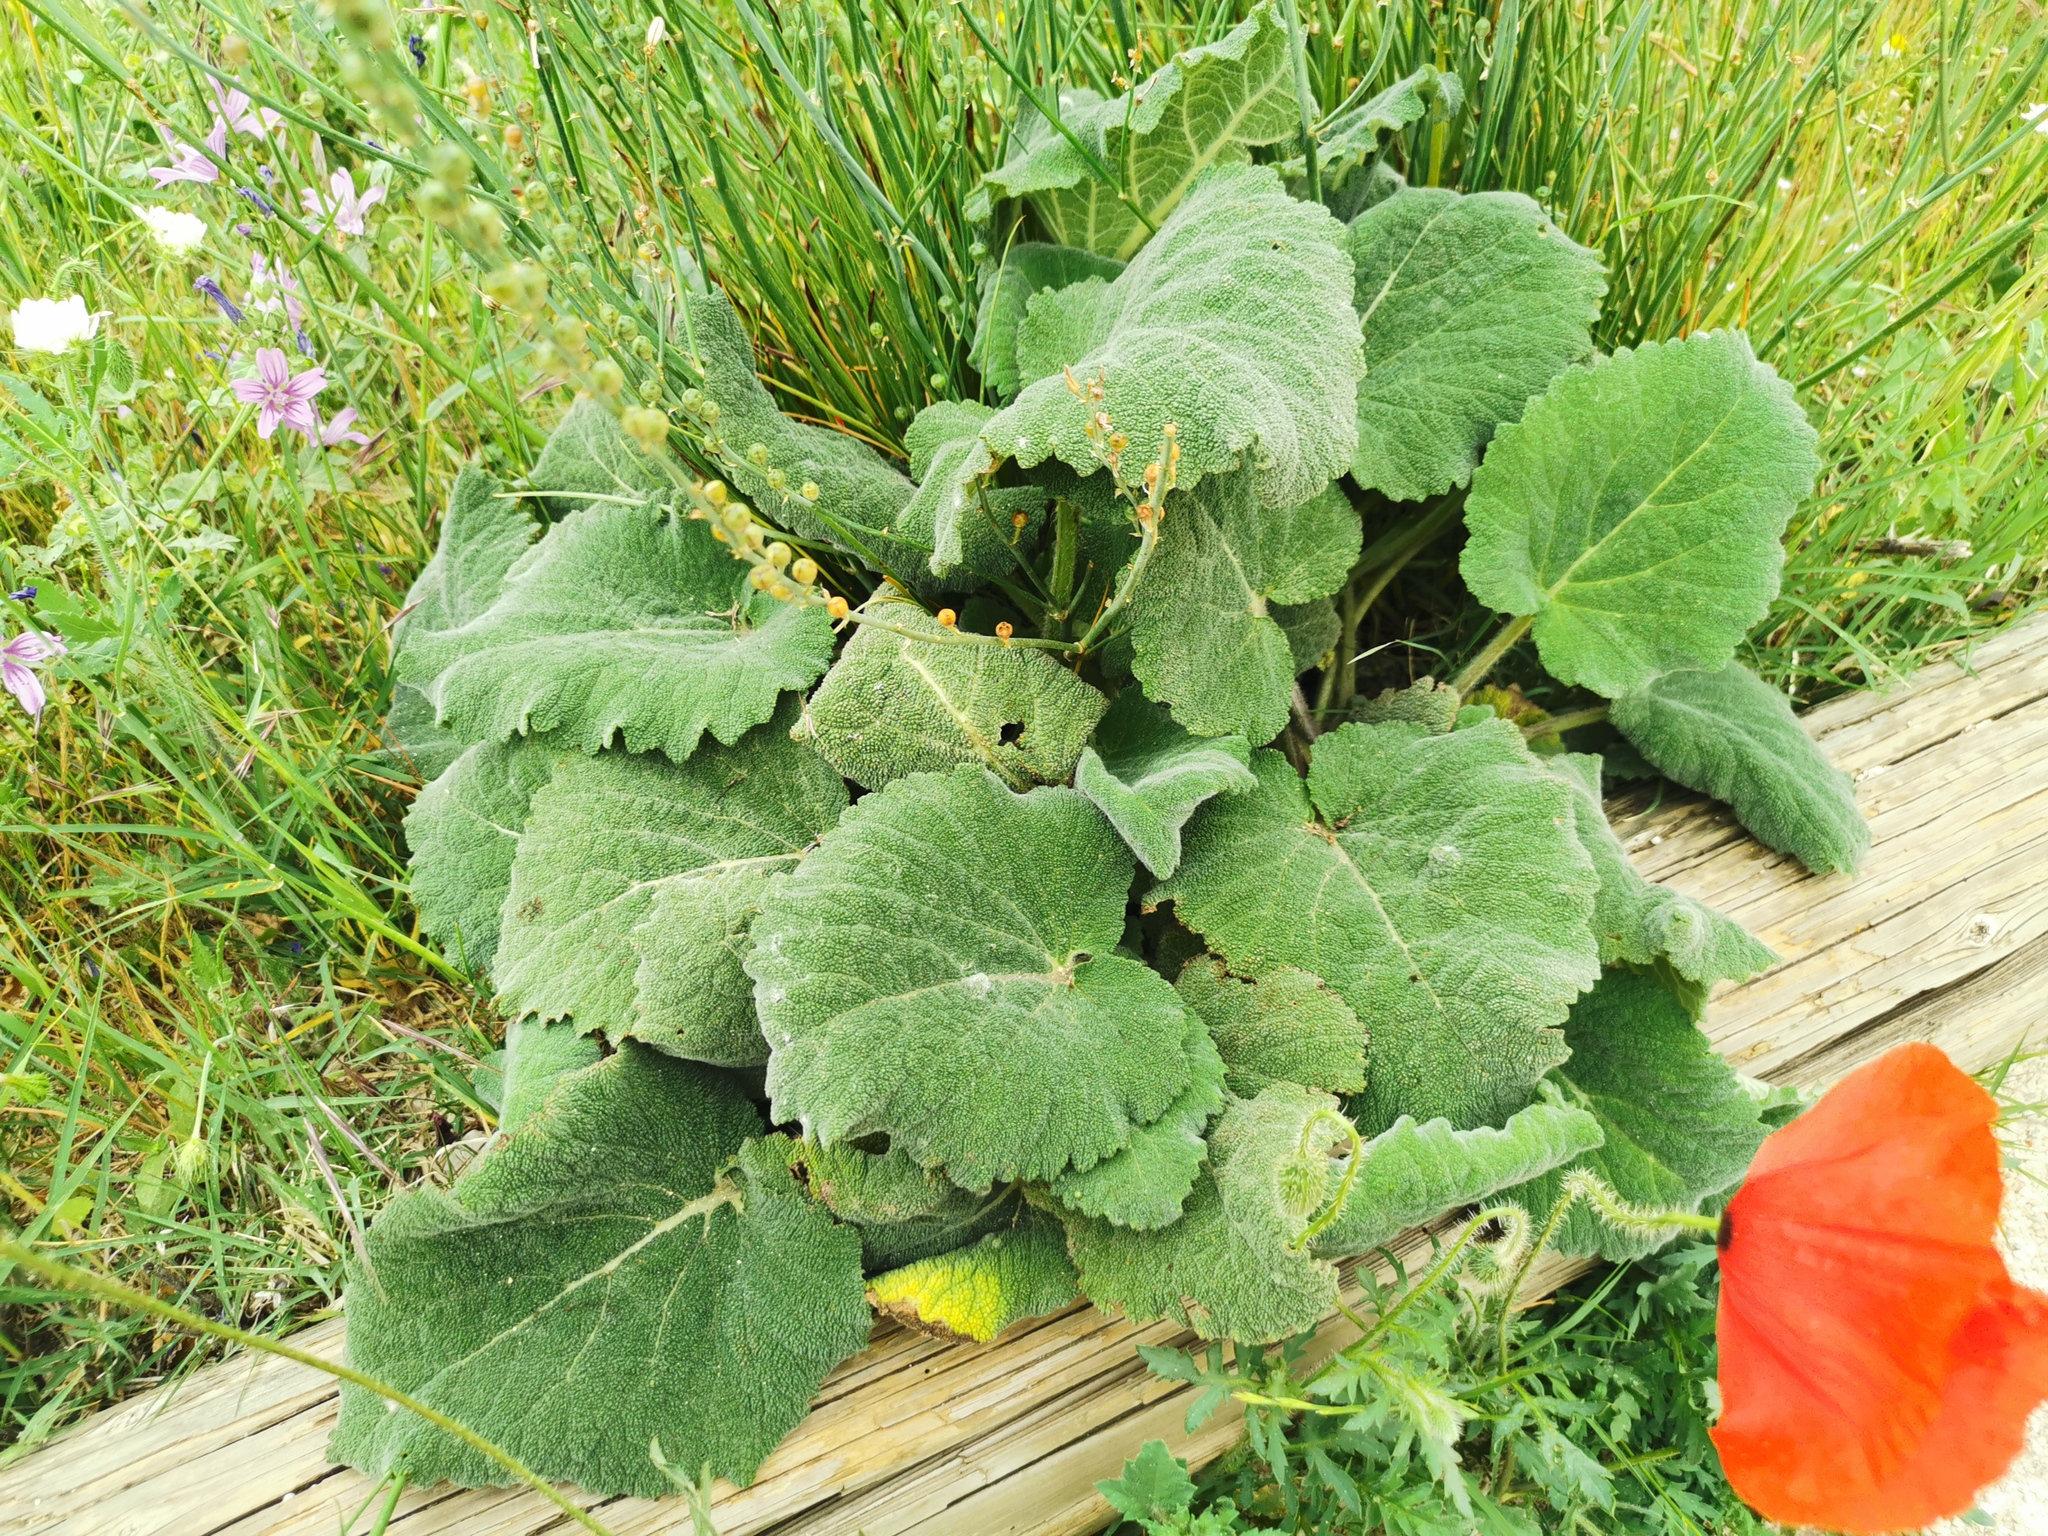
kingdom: Plantae
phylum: Tracheophyta
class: Magnoliopsida
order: Lamiales
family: Lamiaceae
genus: Salvia
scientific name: Salvia sclarea
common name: Clary
